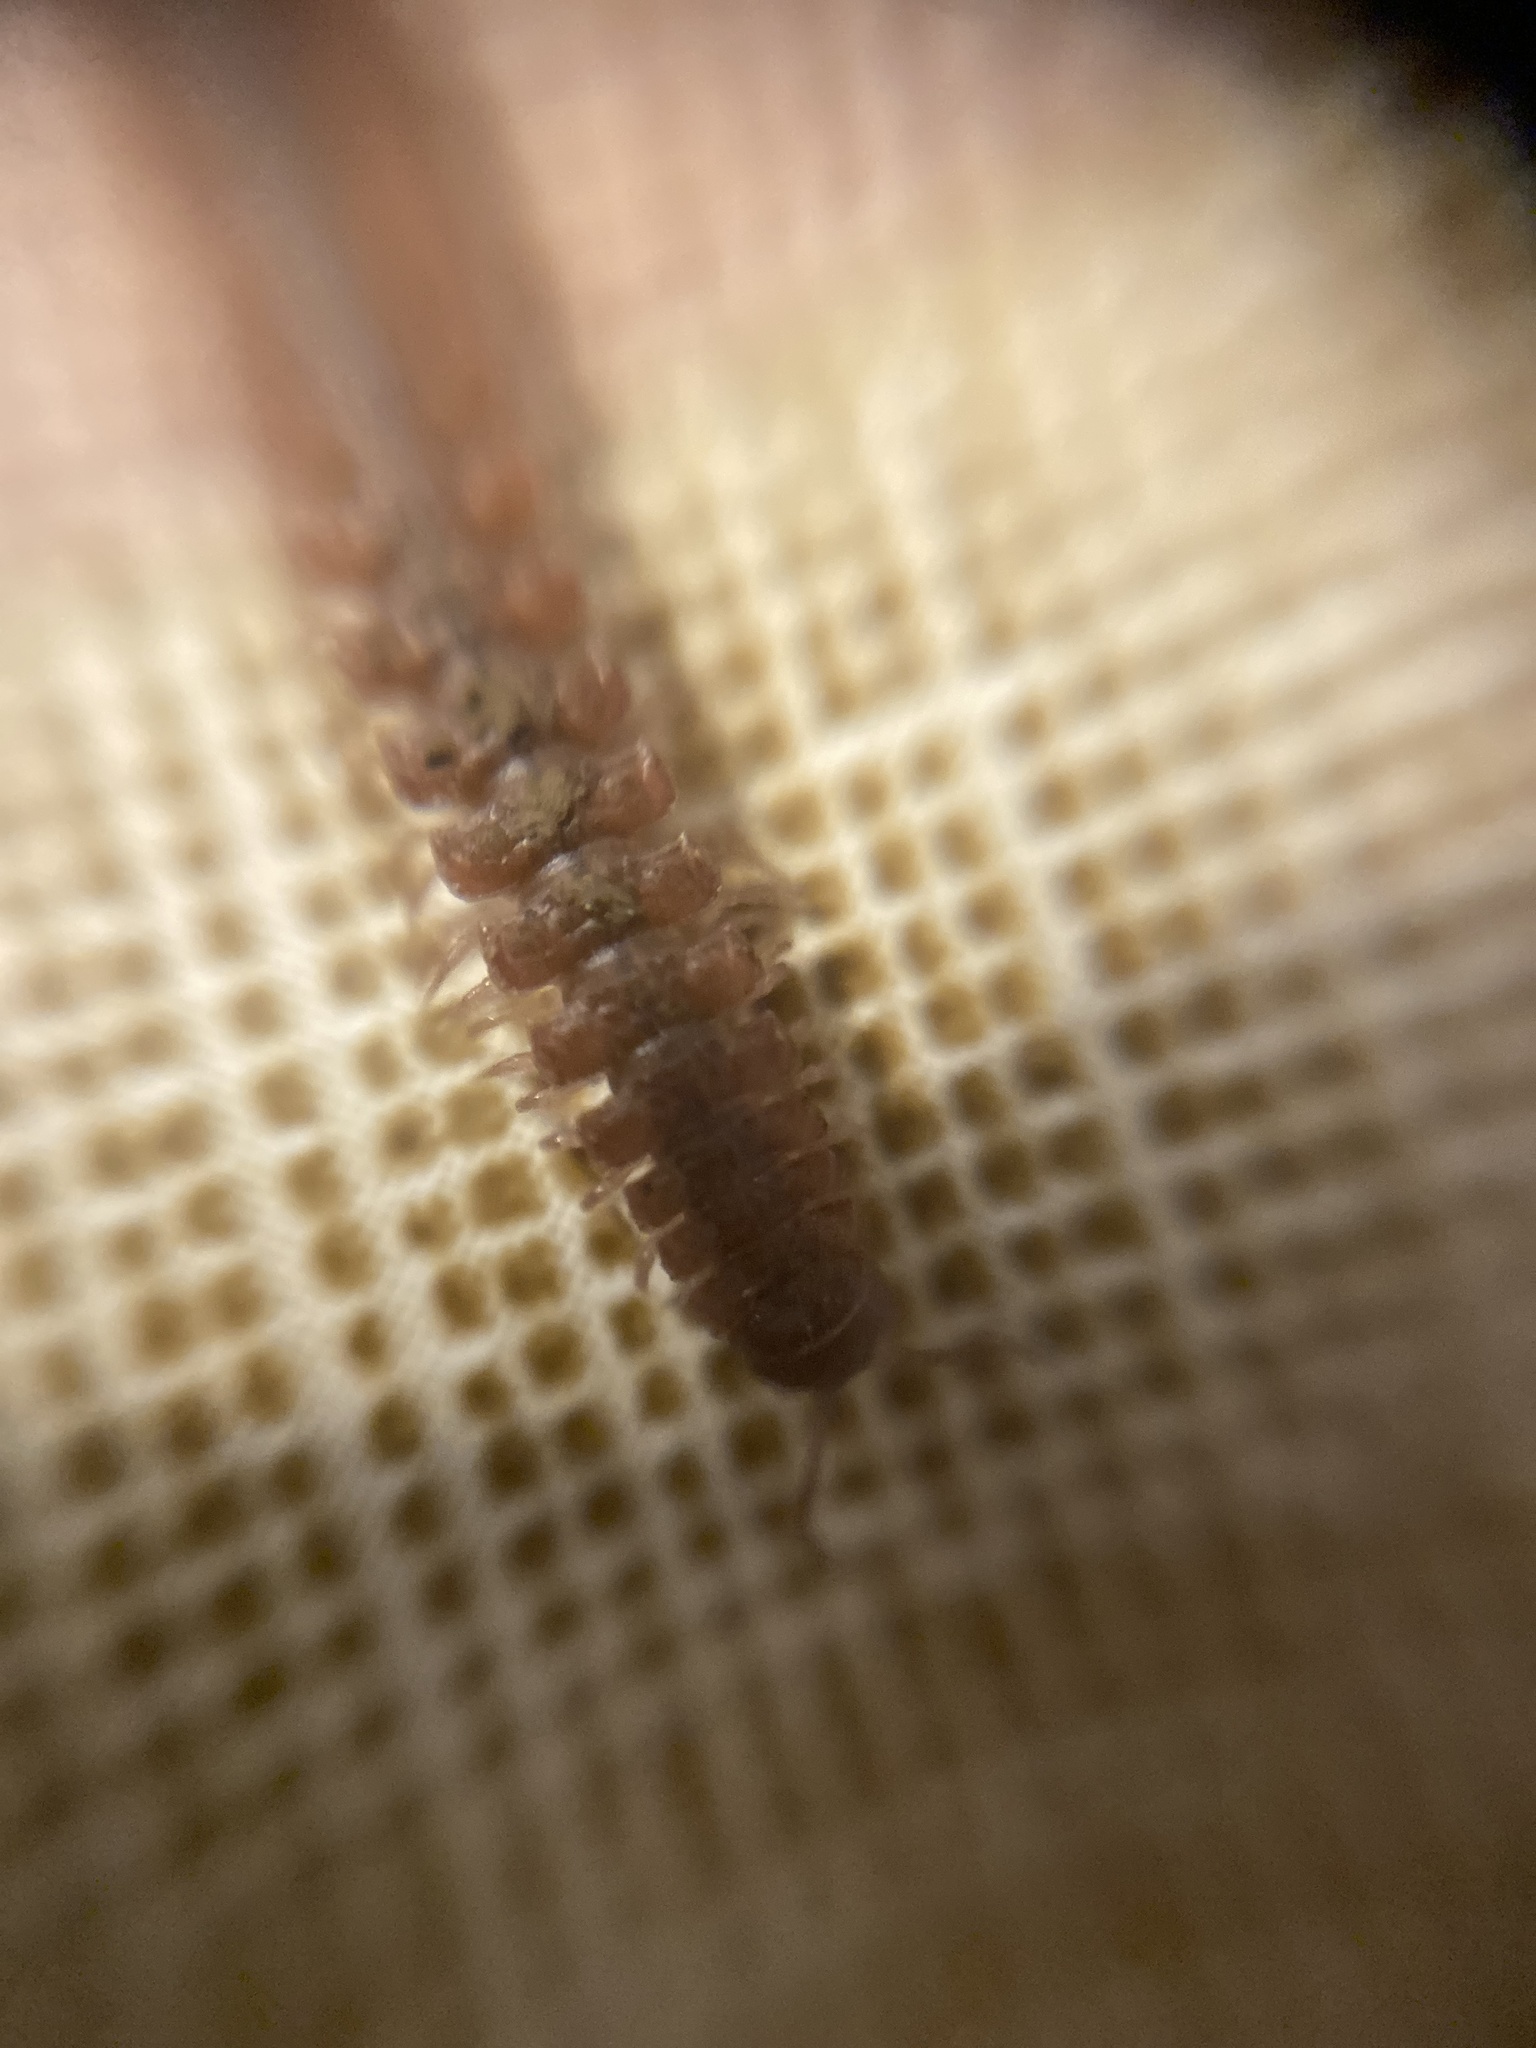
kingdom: Animalia
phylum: Arthropoda
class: Diplopoda
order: Polydesmida
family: Polydesmidae
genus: Polydesmus
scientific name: Polydesmus angustus
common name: Flat millipede
